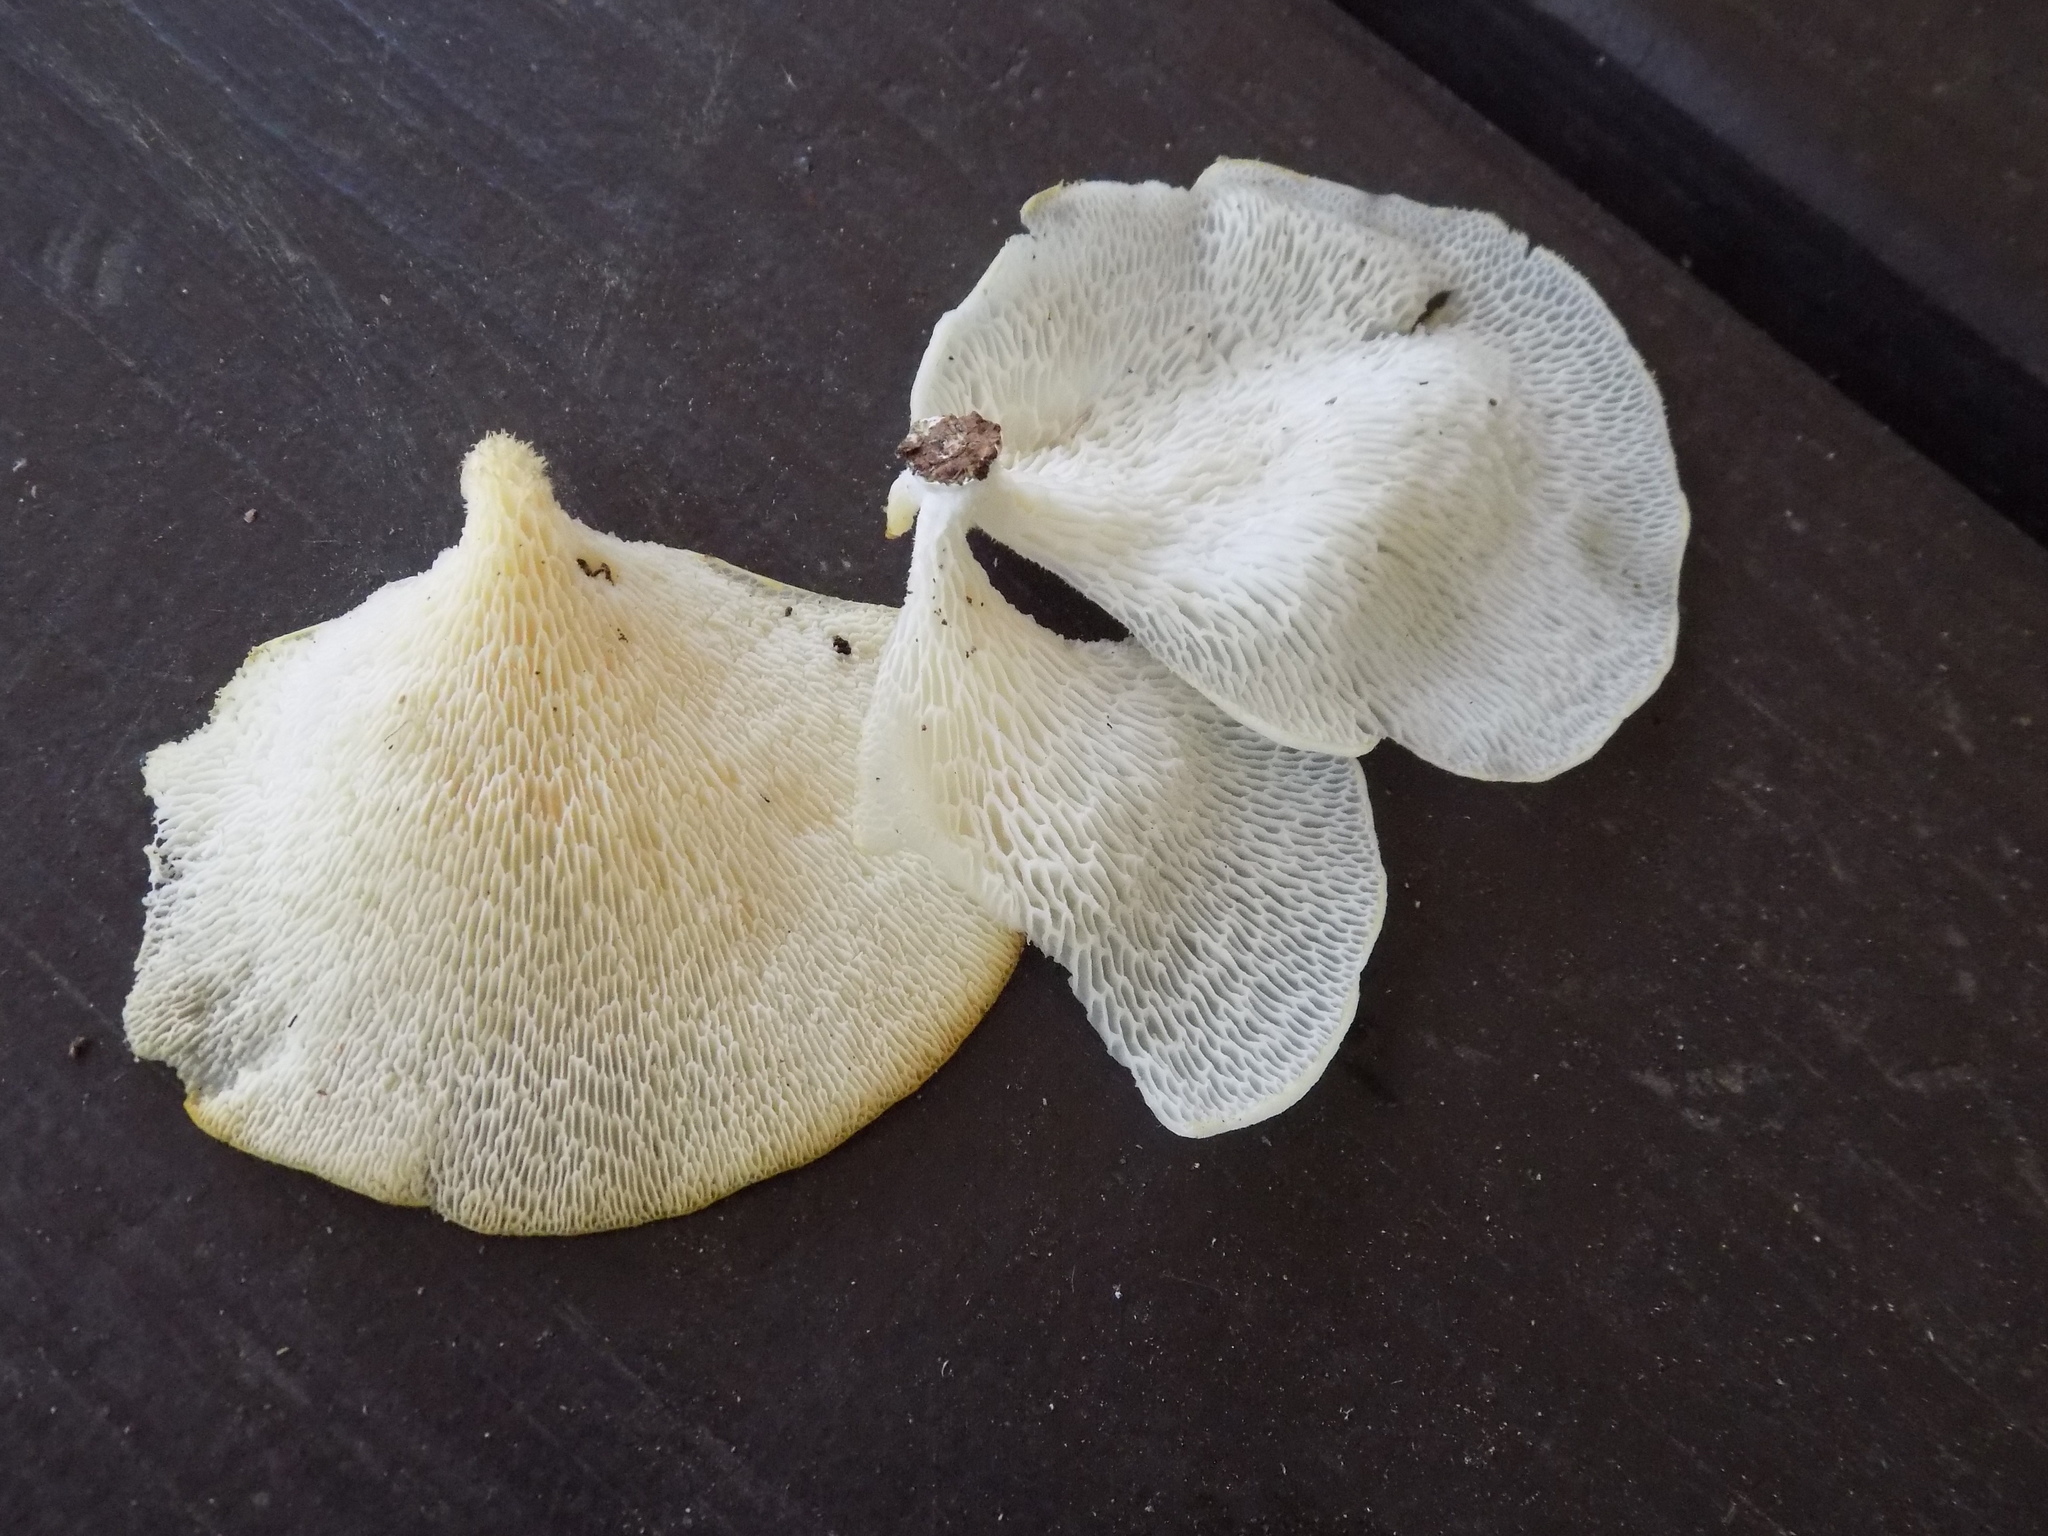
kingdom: Fungi
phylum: Basidiomycota
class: Agaricomycetes
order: Polyporales
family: Polyporaceae
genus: Favolus
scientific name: Favolus tenuiculus
